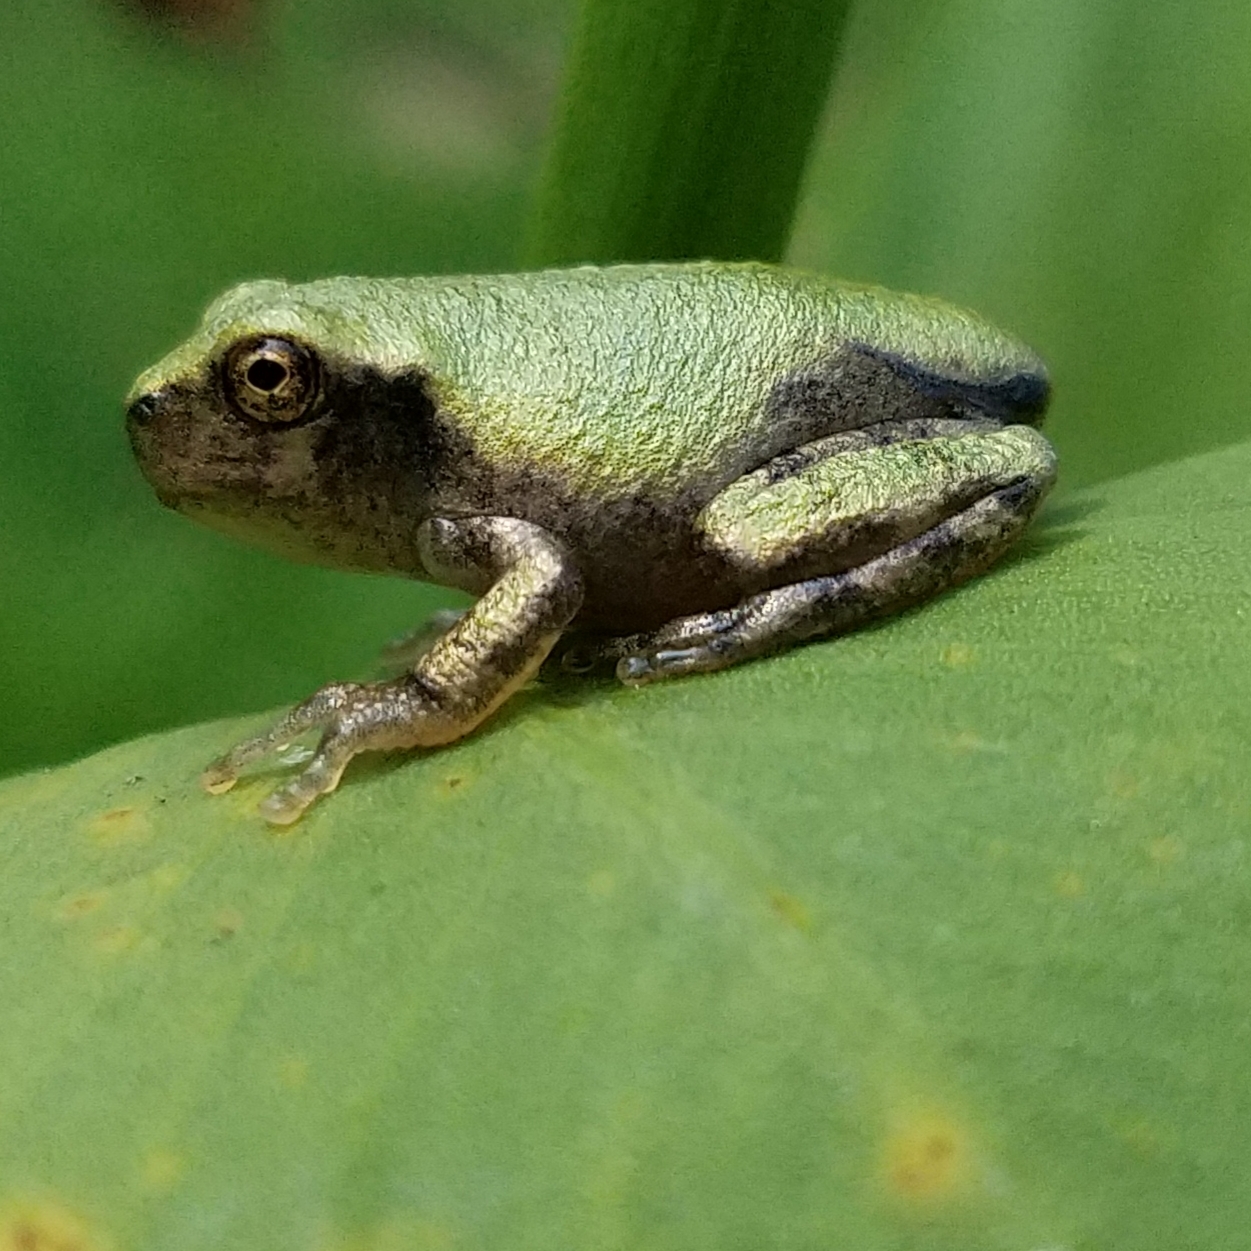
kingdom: Animalia
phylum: Chordata
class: Amphibia
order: Anura
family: Hylidae
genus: Dryophytes
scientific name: Dryophytes chrysoscelis
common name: Cope's gray treefrog
